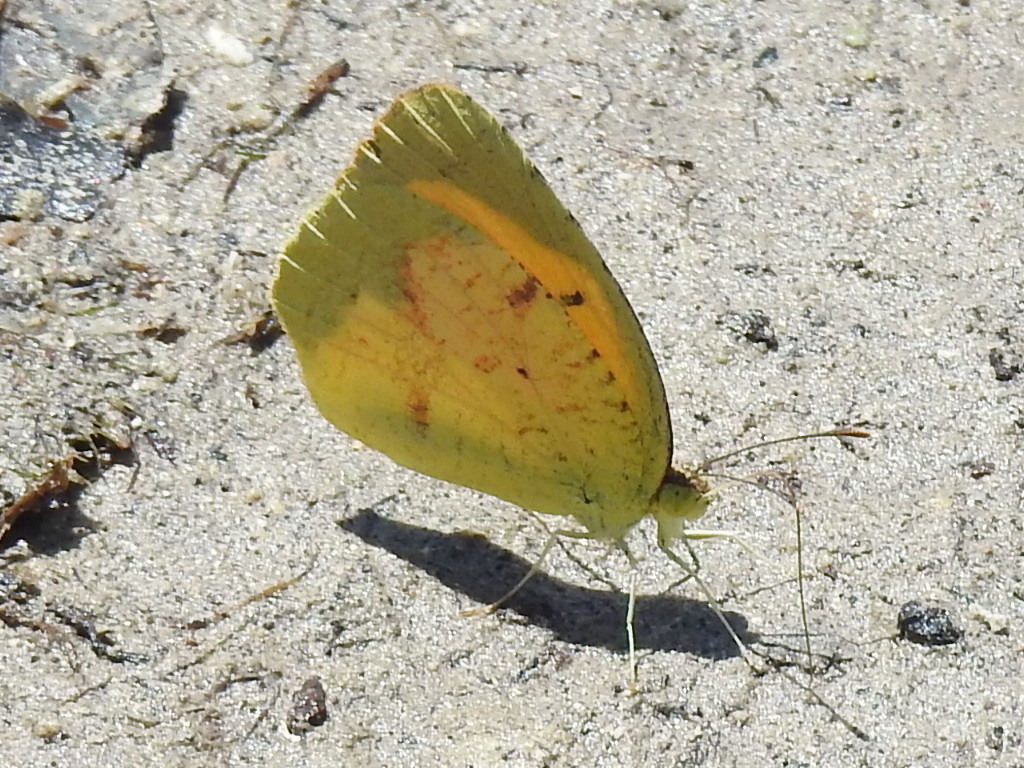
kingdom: Animalia
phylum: Arthropoda
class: Insecta
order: Lepidoptera
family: Pieridae
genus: Abaeis
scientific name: Abaeis nicippe
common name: Sleepy orange
